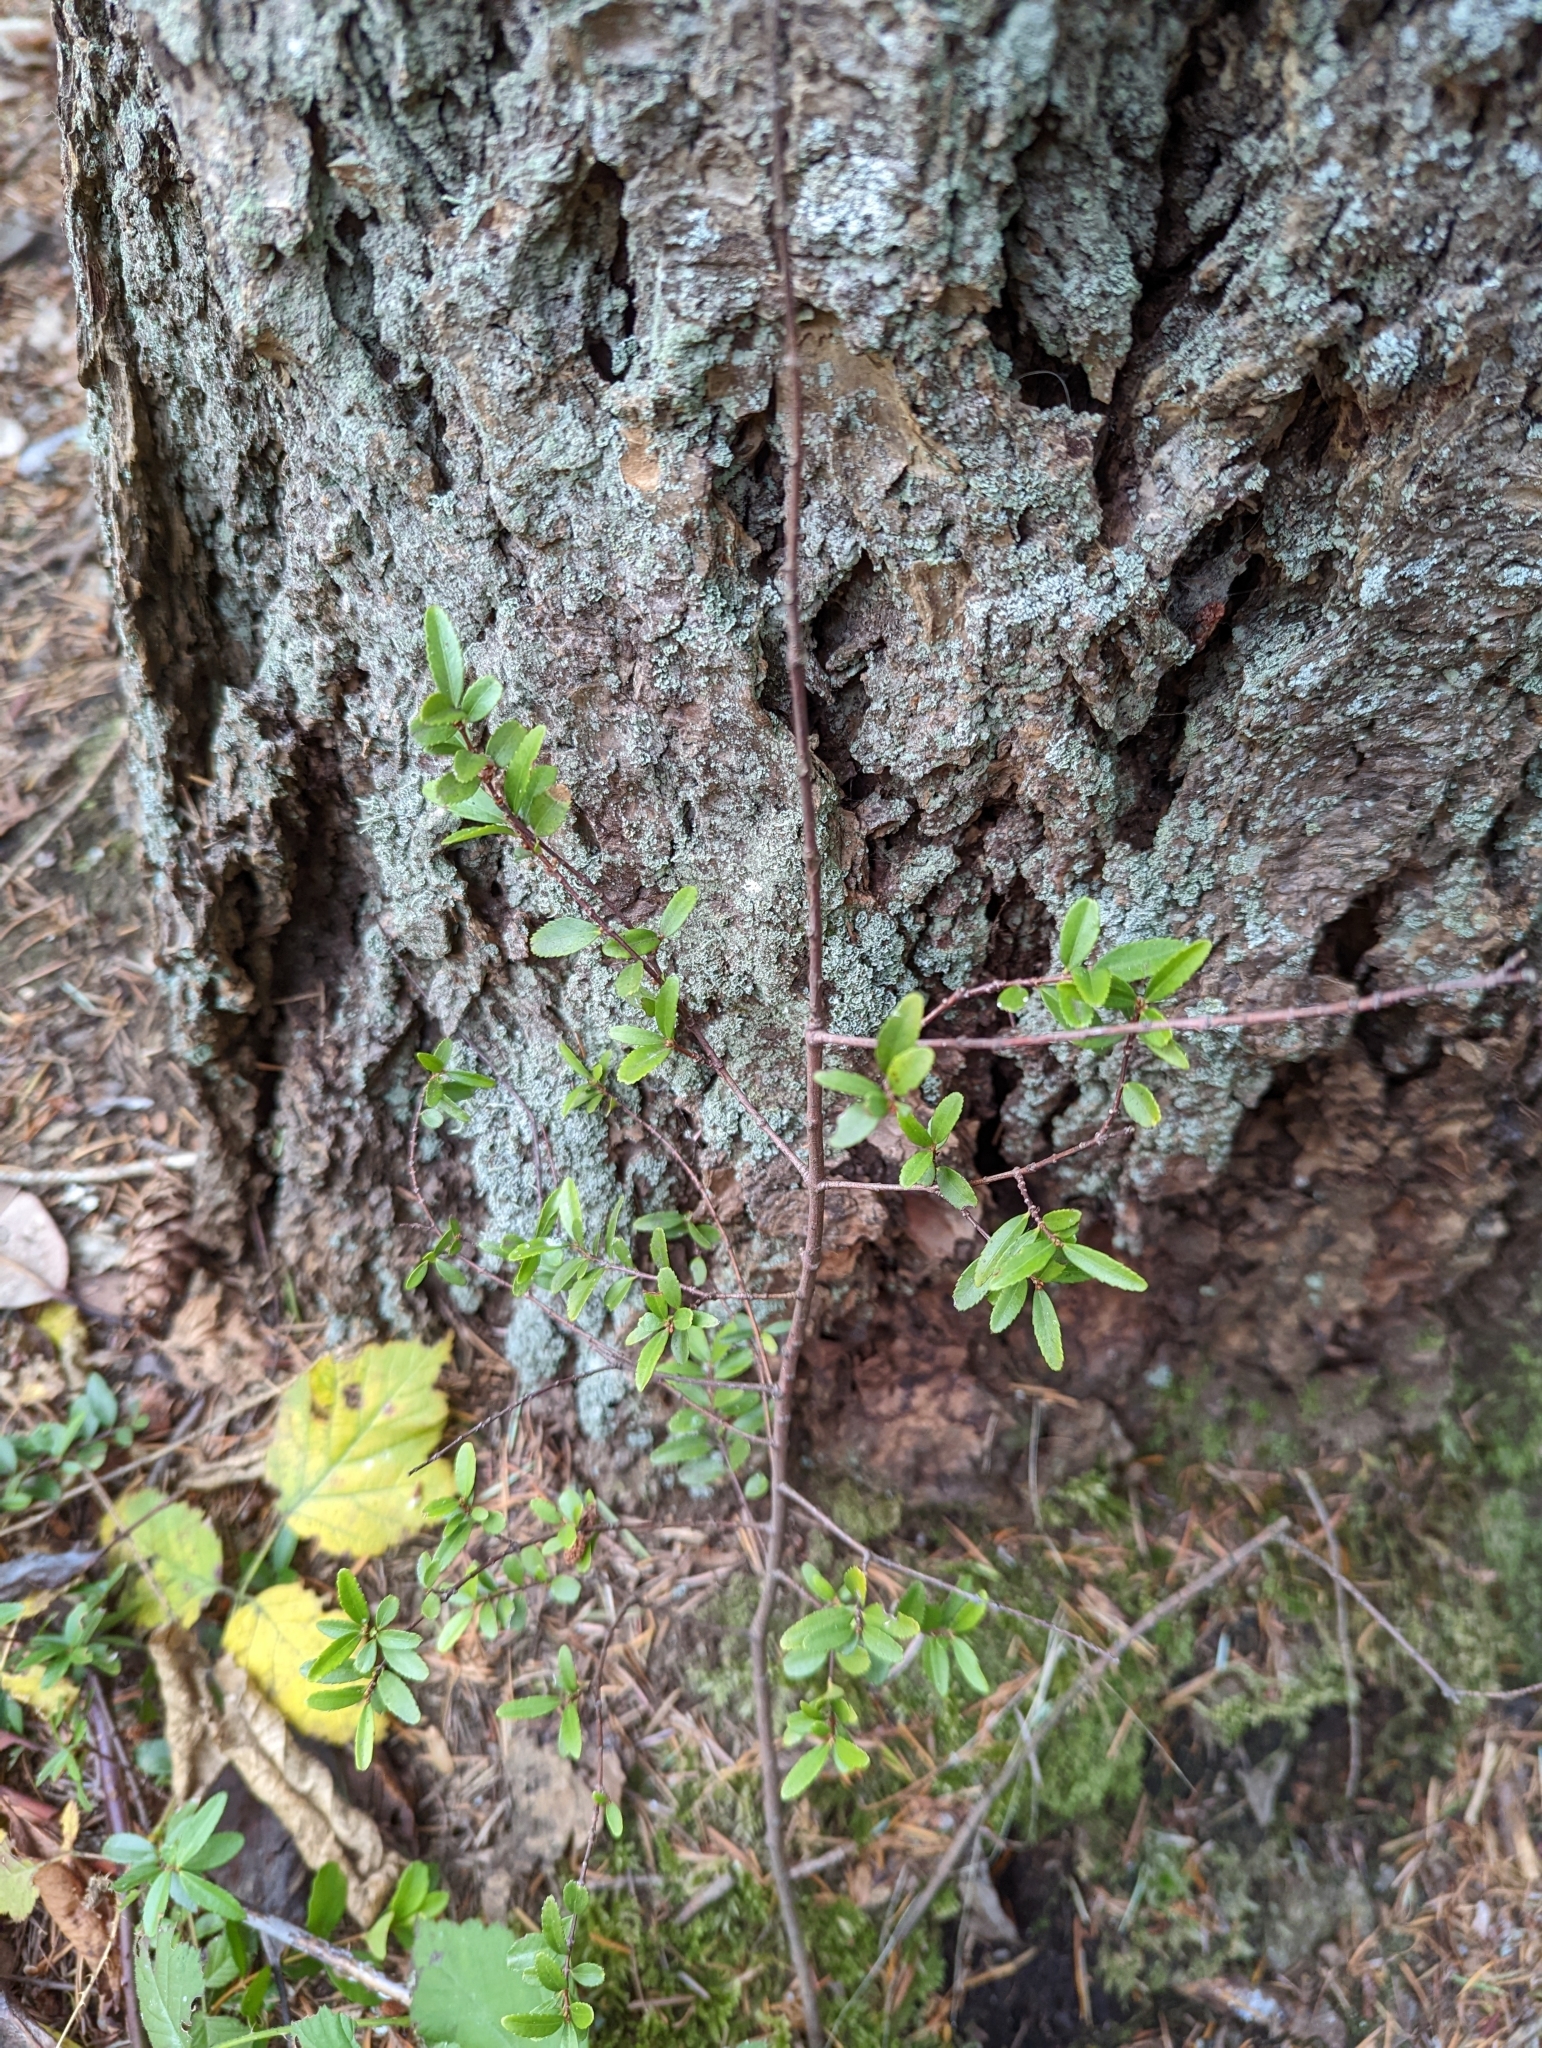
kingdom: Plantae
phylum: Tracheophyta
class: Magnoliopsida
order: Celastrales
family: Celastraceae
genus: Paxistima
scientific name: Paxistima myrsinites
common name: Mountain-lover
